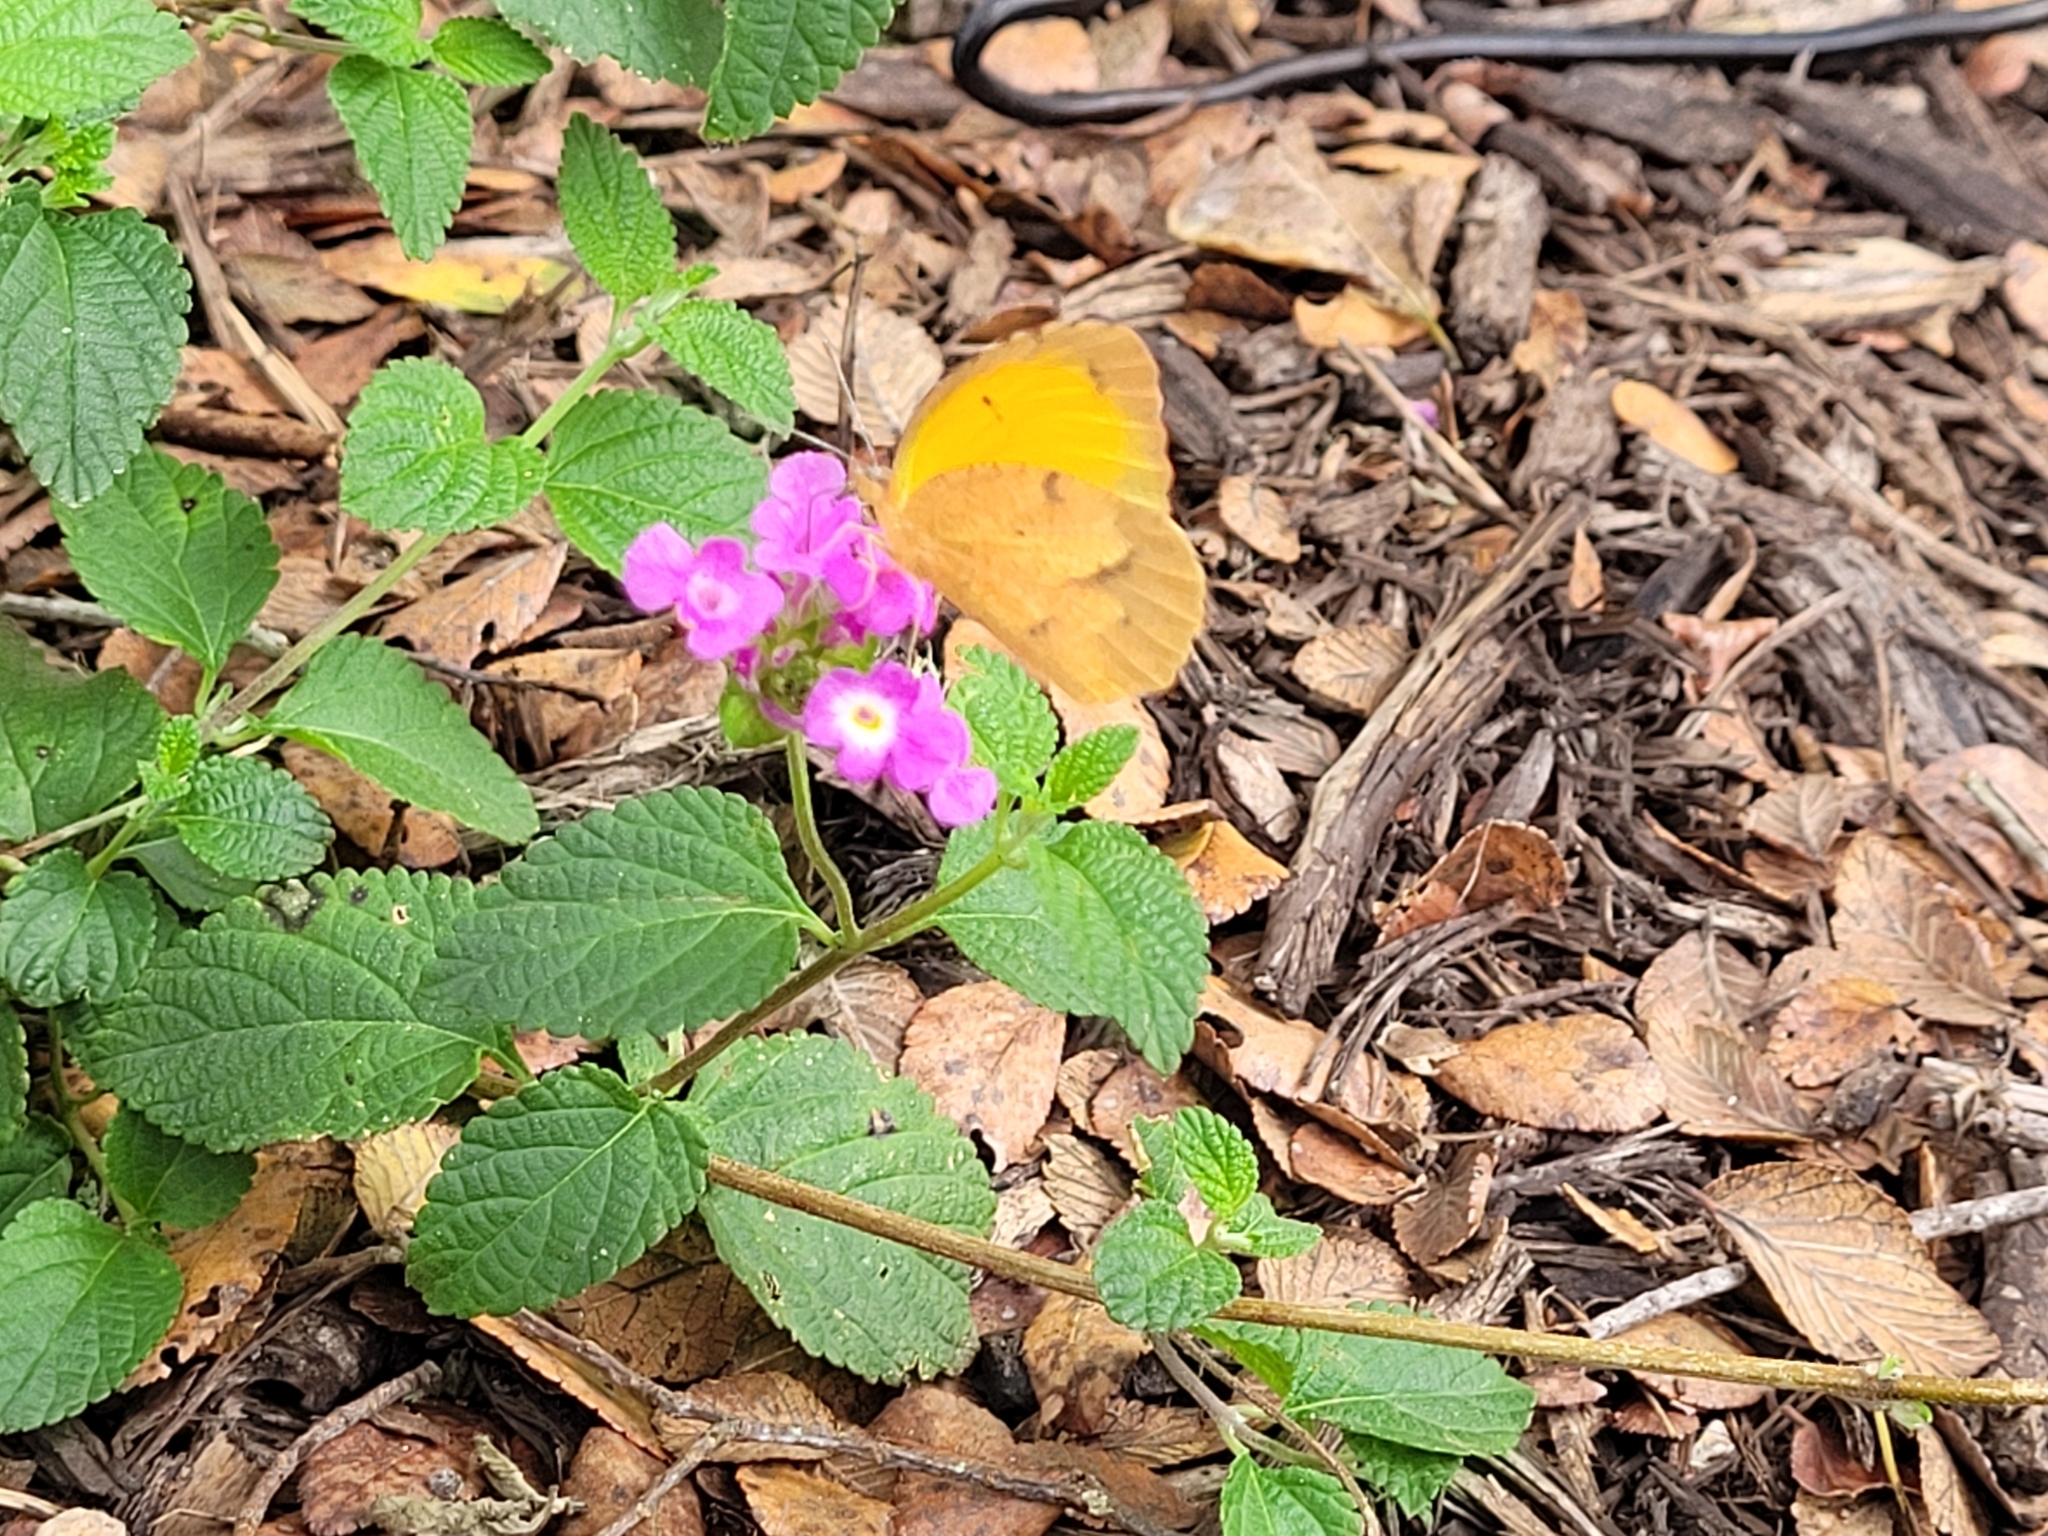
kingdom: Animalia
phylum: Arthropoda
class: Insecta
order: Lepidoptera
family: Pieridae
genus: Abaeis
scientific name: Abaeis nicippe
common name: Sleepy orange
